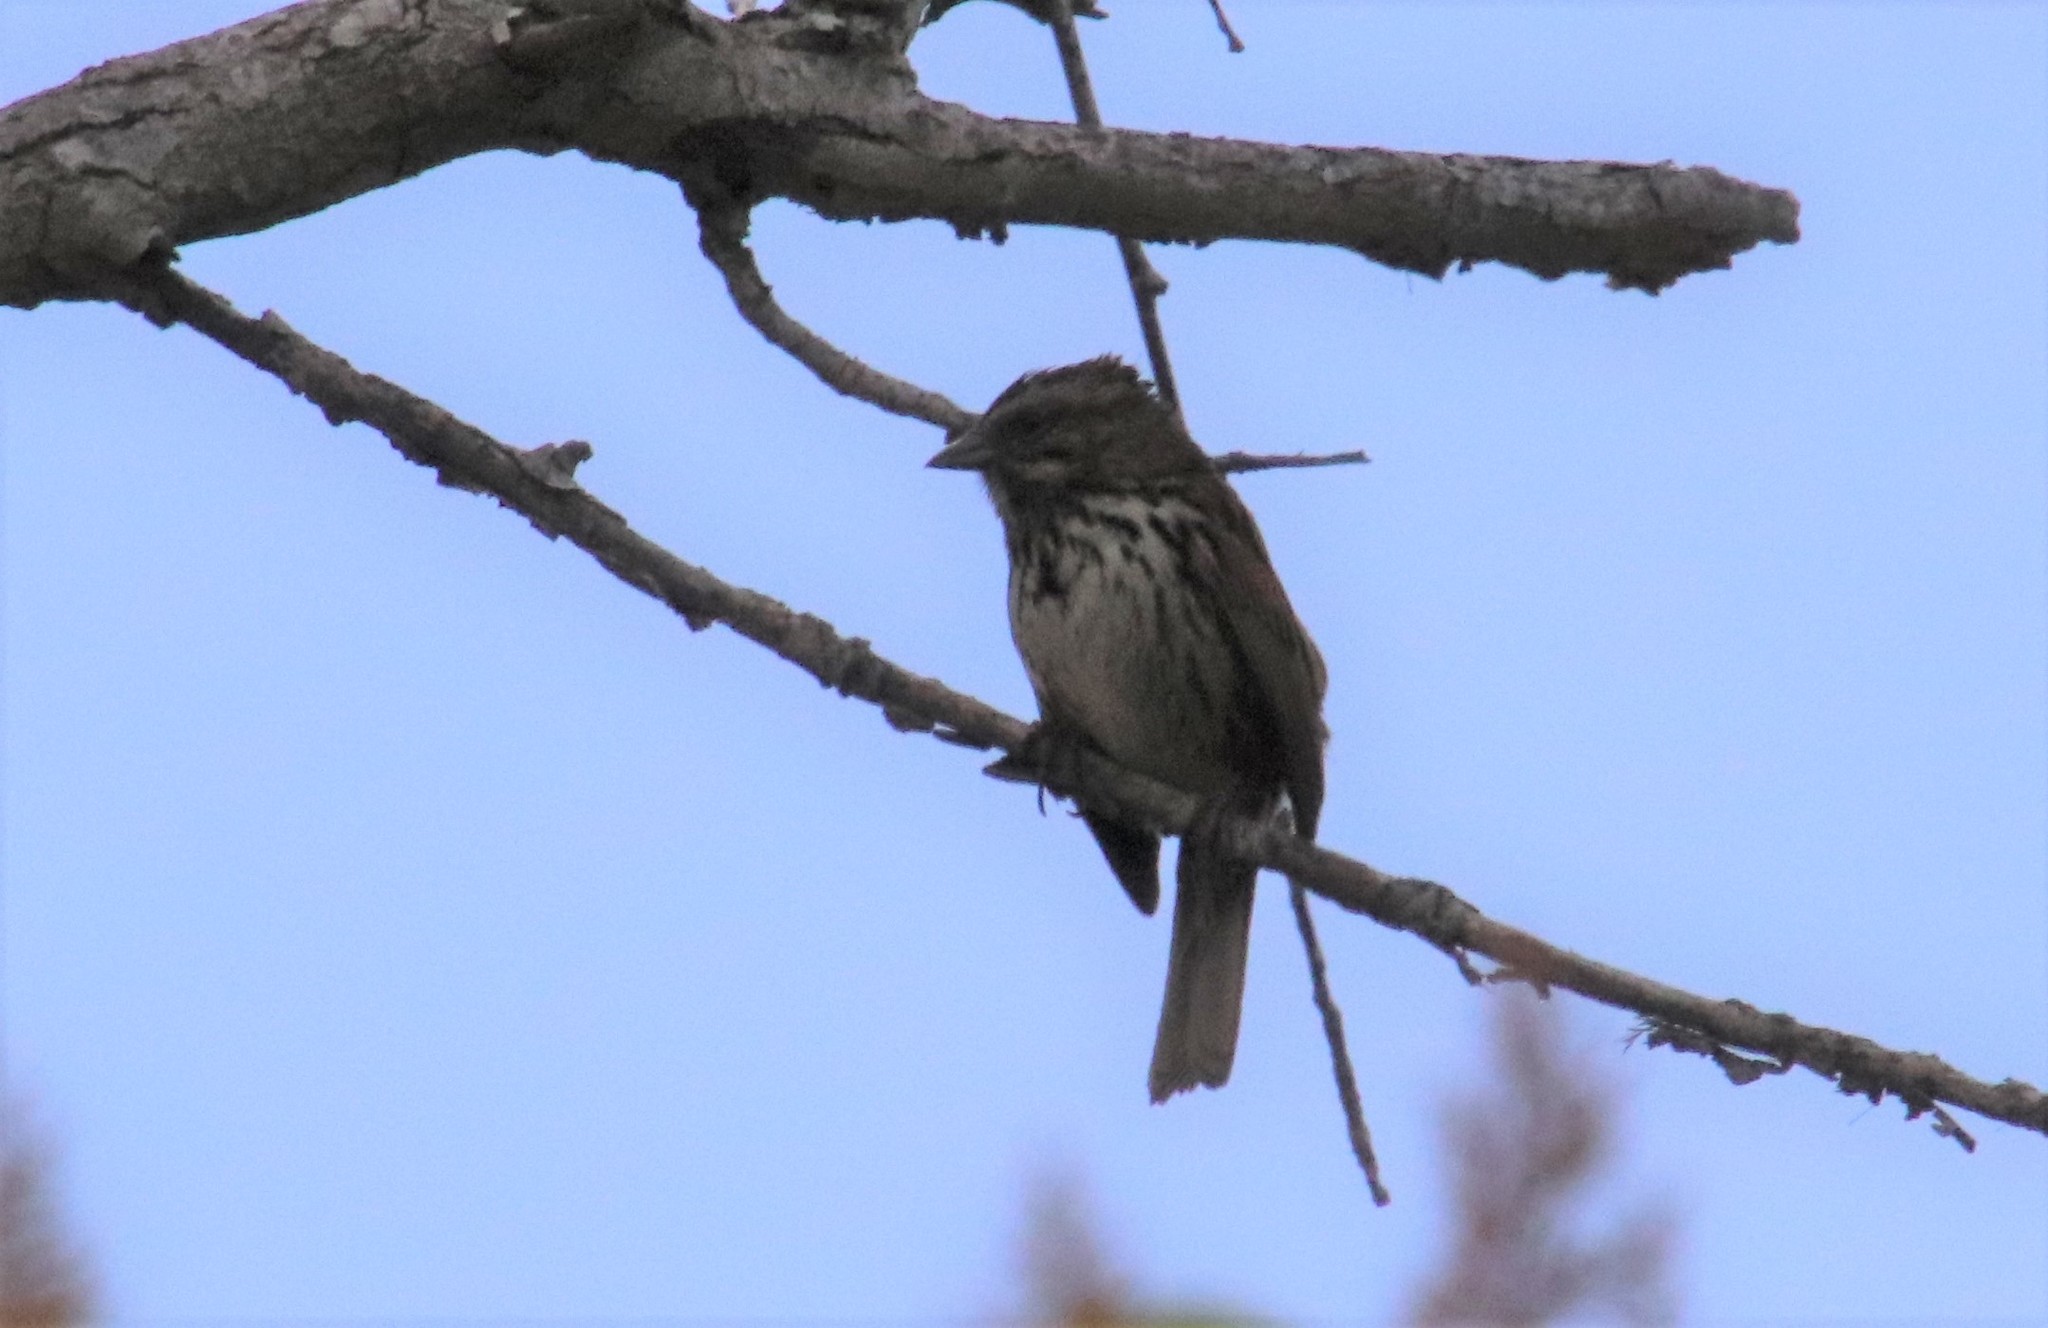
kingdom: Animalia
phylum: Chordata
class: Aves
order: Passeriformes
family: Passerellidae
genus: Melospiza
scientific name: Melospiza melodia
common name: Song sparrow
